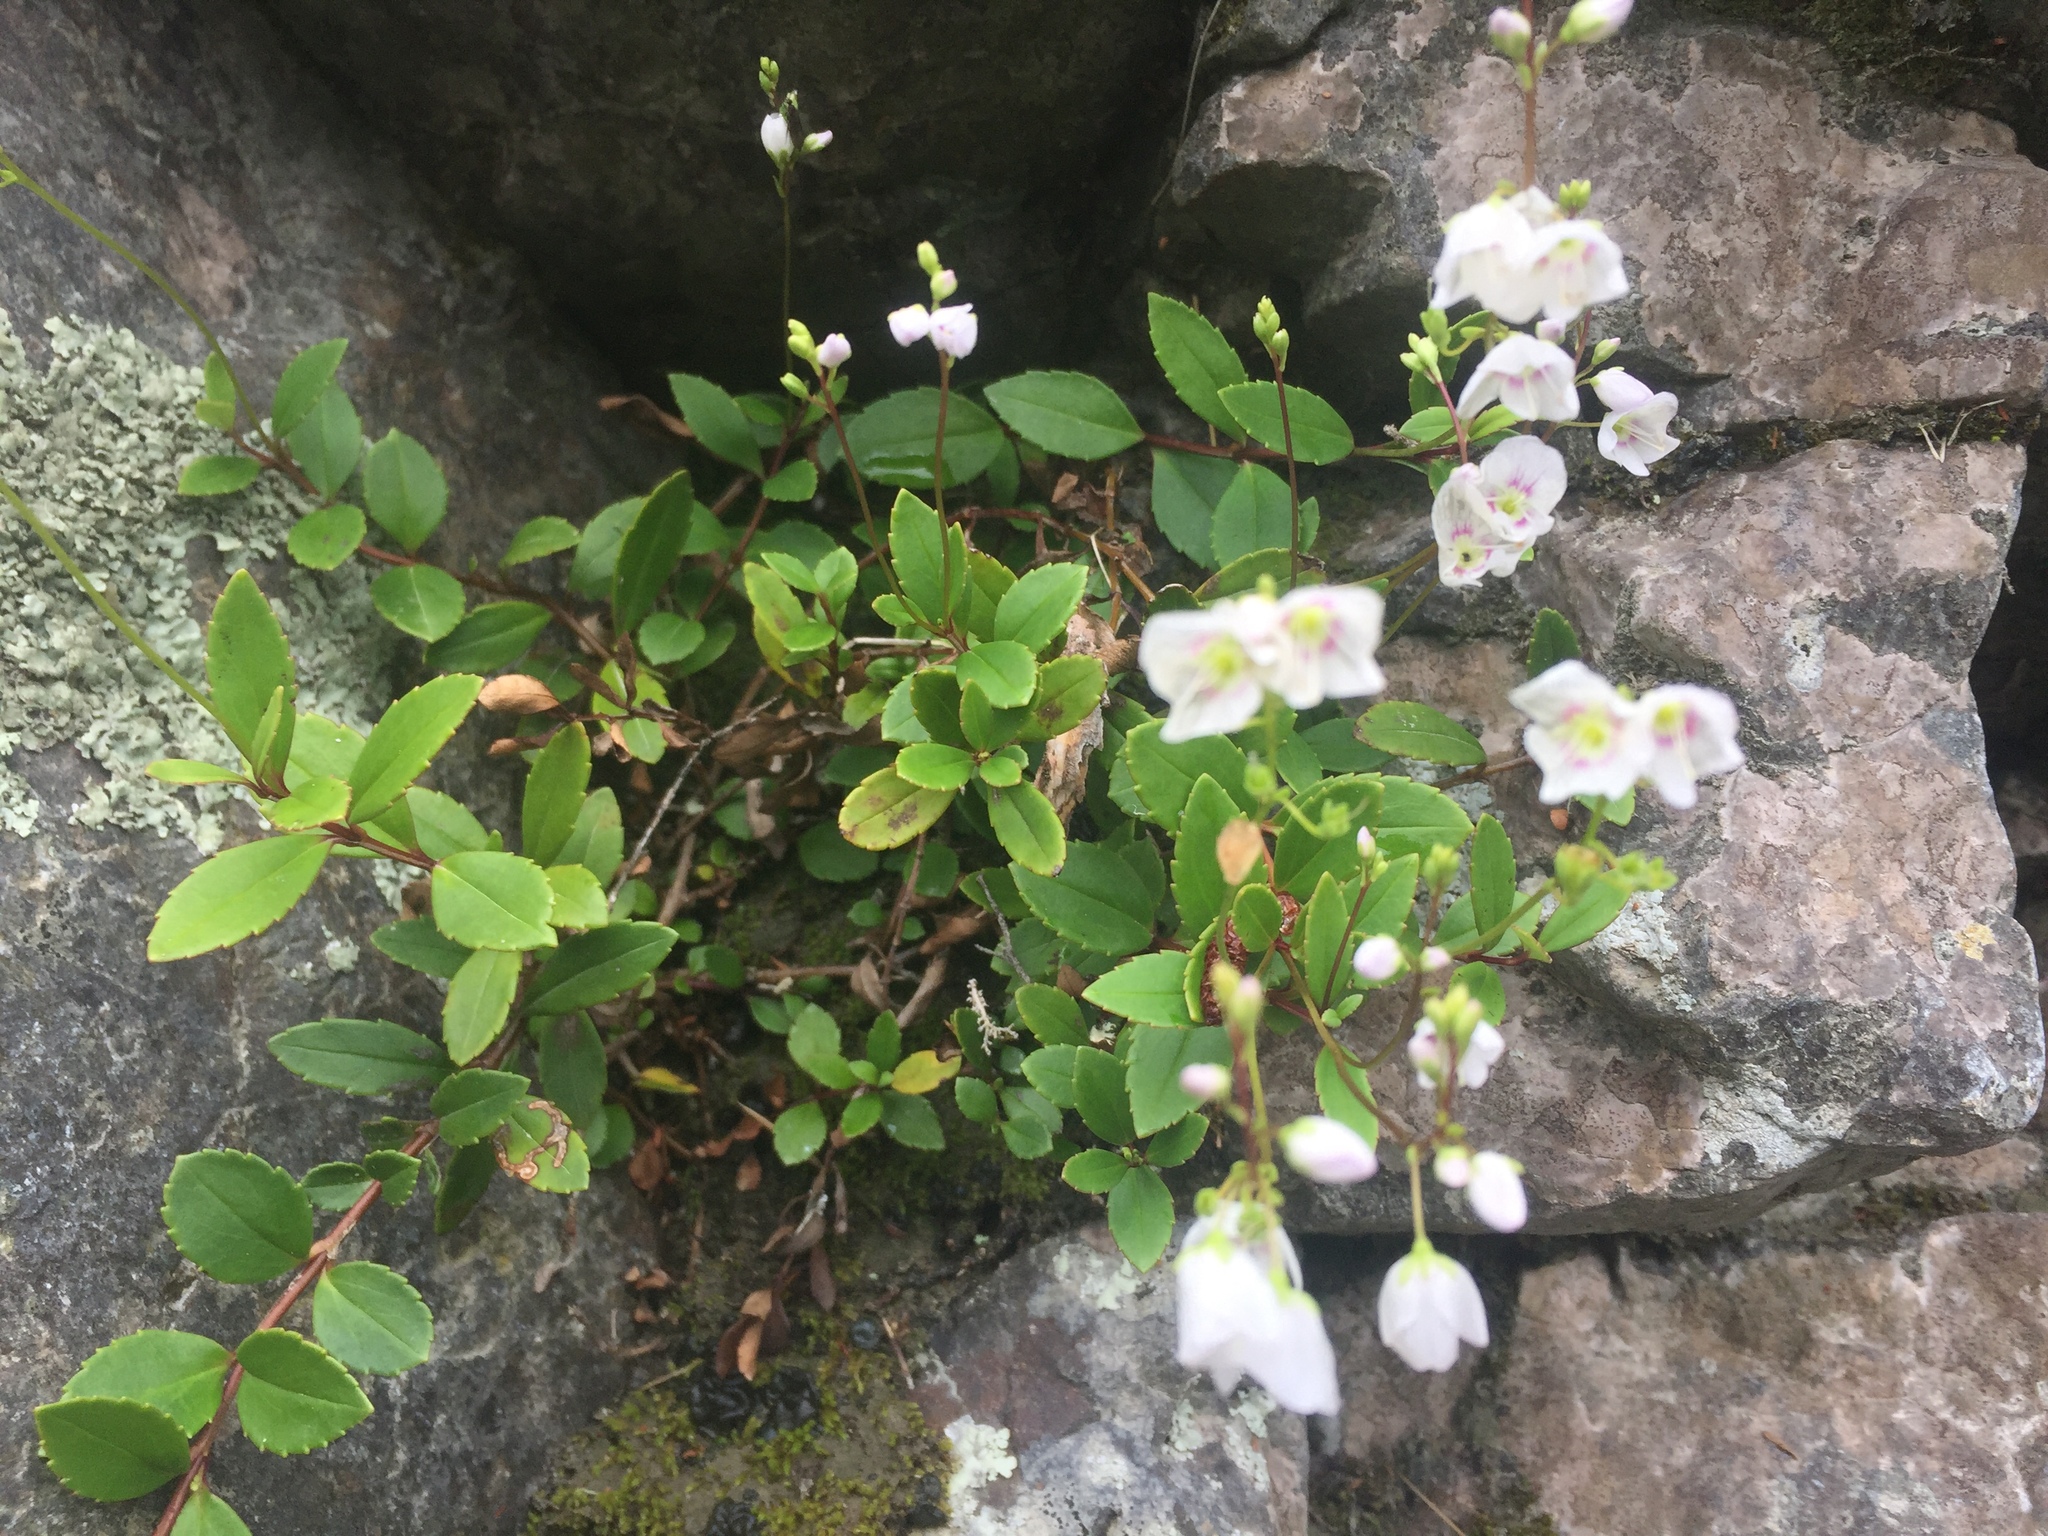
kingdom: Plantae
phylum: Tracheophyta
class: Magnoliopsida
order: Lamiales
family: Plantaginaceae
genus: Veronica
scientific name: Veronica lanceolata
